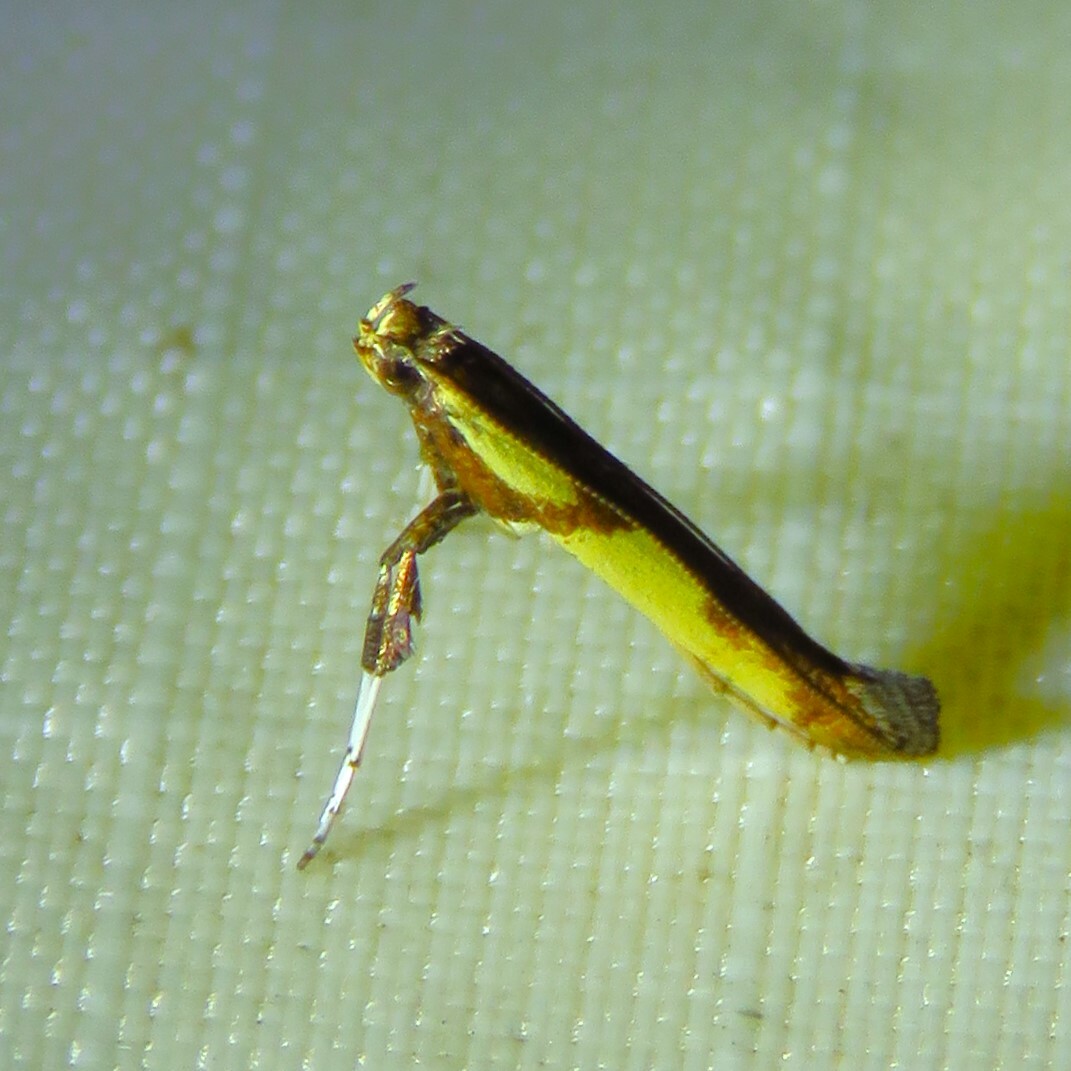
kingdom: Animalia
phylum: Arthropoda
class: Insecta
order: Lepidoptera
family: Gracillariidae
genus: Caloptilia
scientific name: Caloptilia blandella
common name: Walnut caloptilia moth
